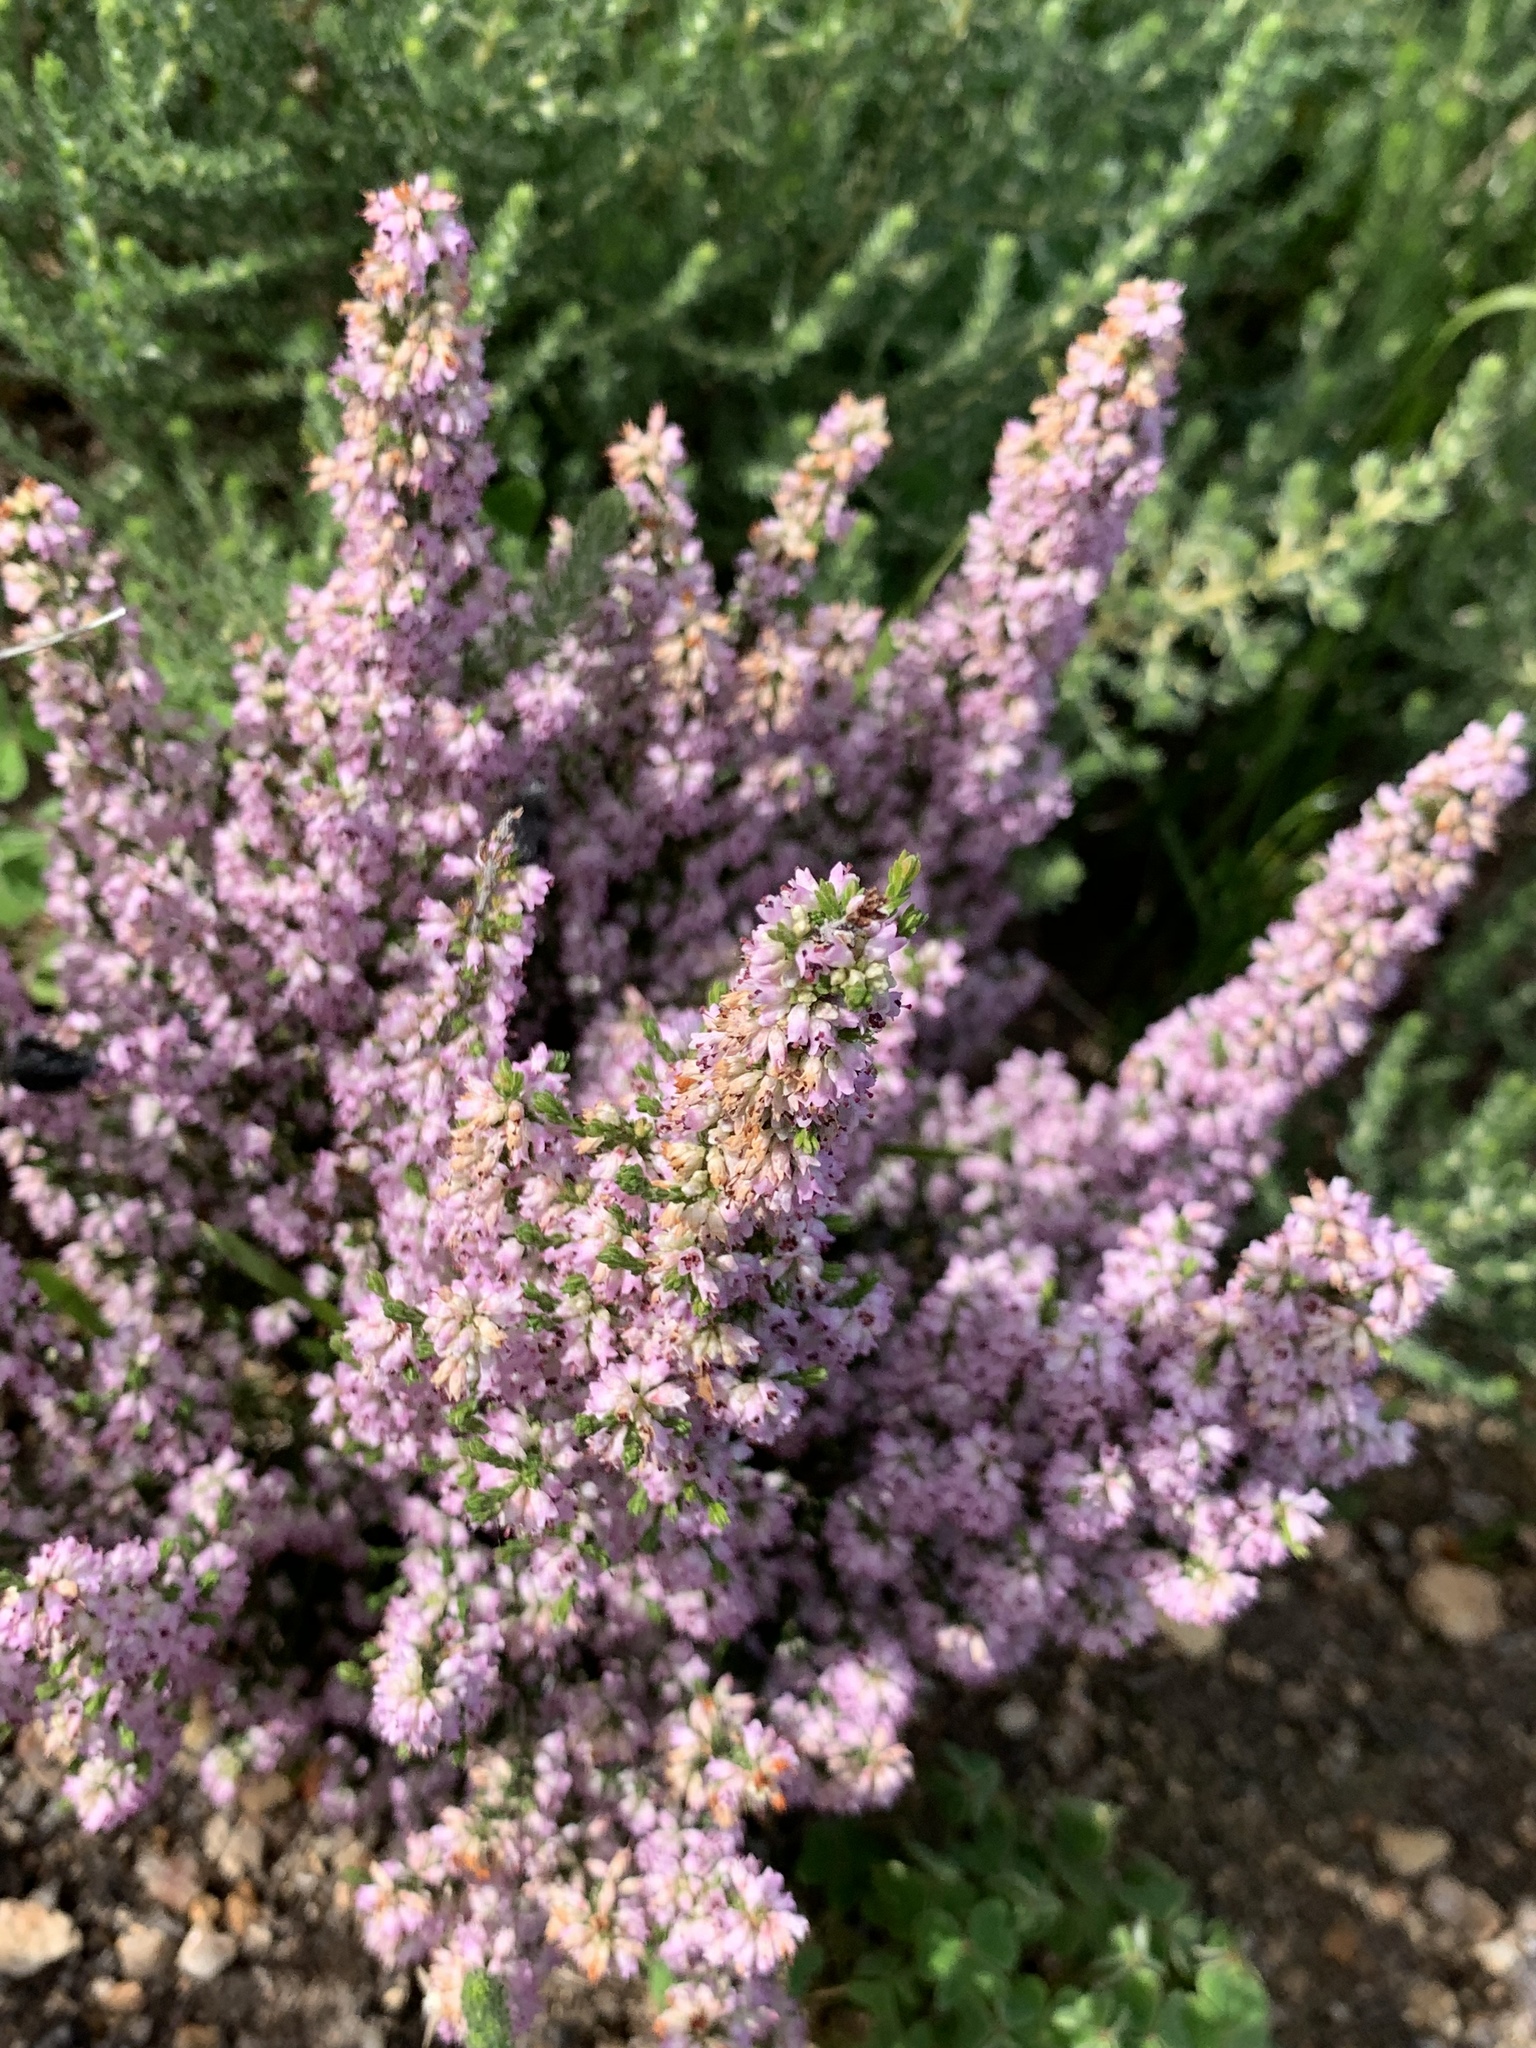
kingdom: Plantae
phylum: Tracheophyta
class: Magnoliopsida
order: Ericales
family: Ericaceae
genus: Erica
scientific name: Erica paniculata
